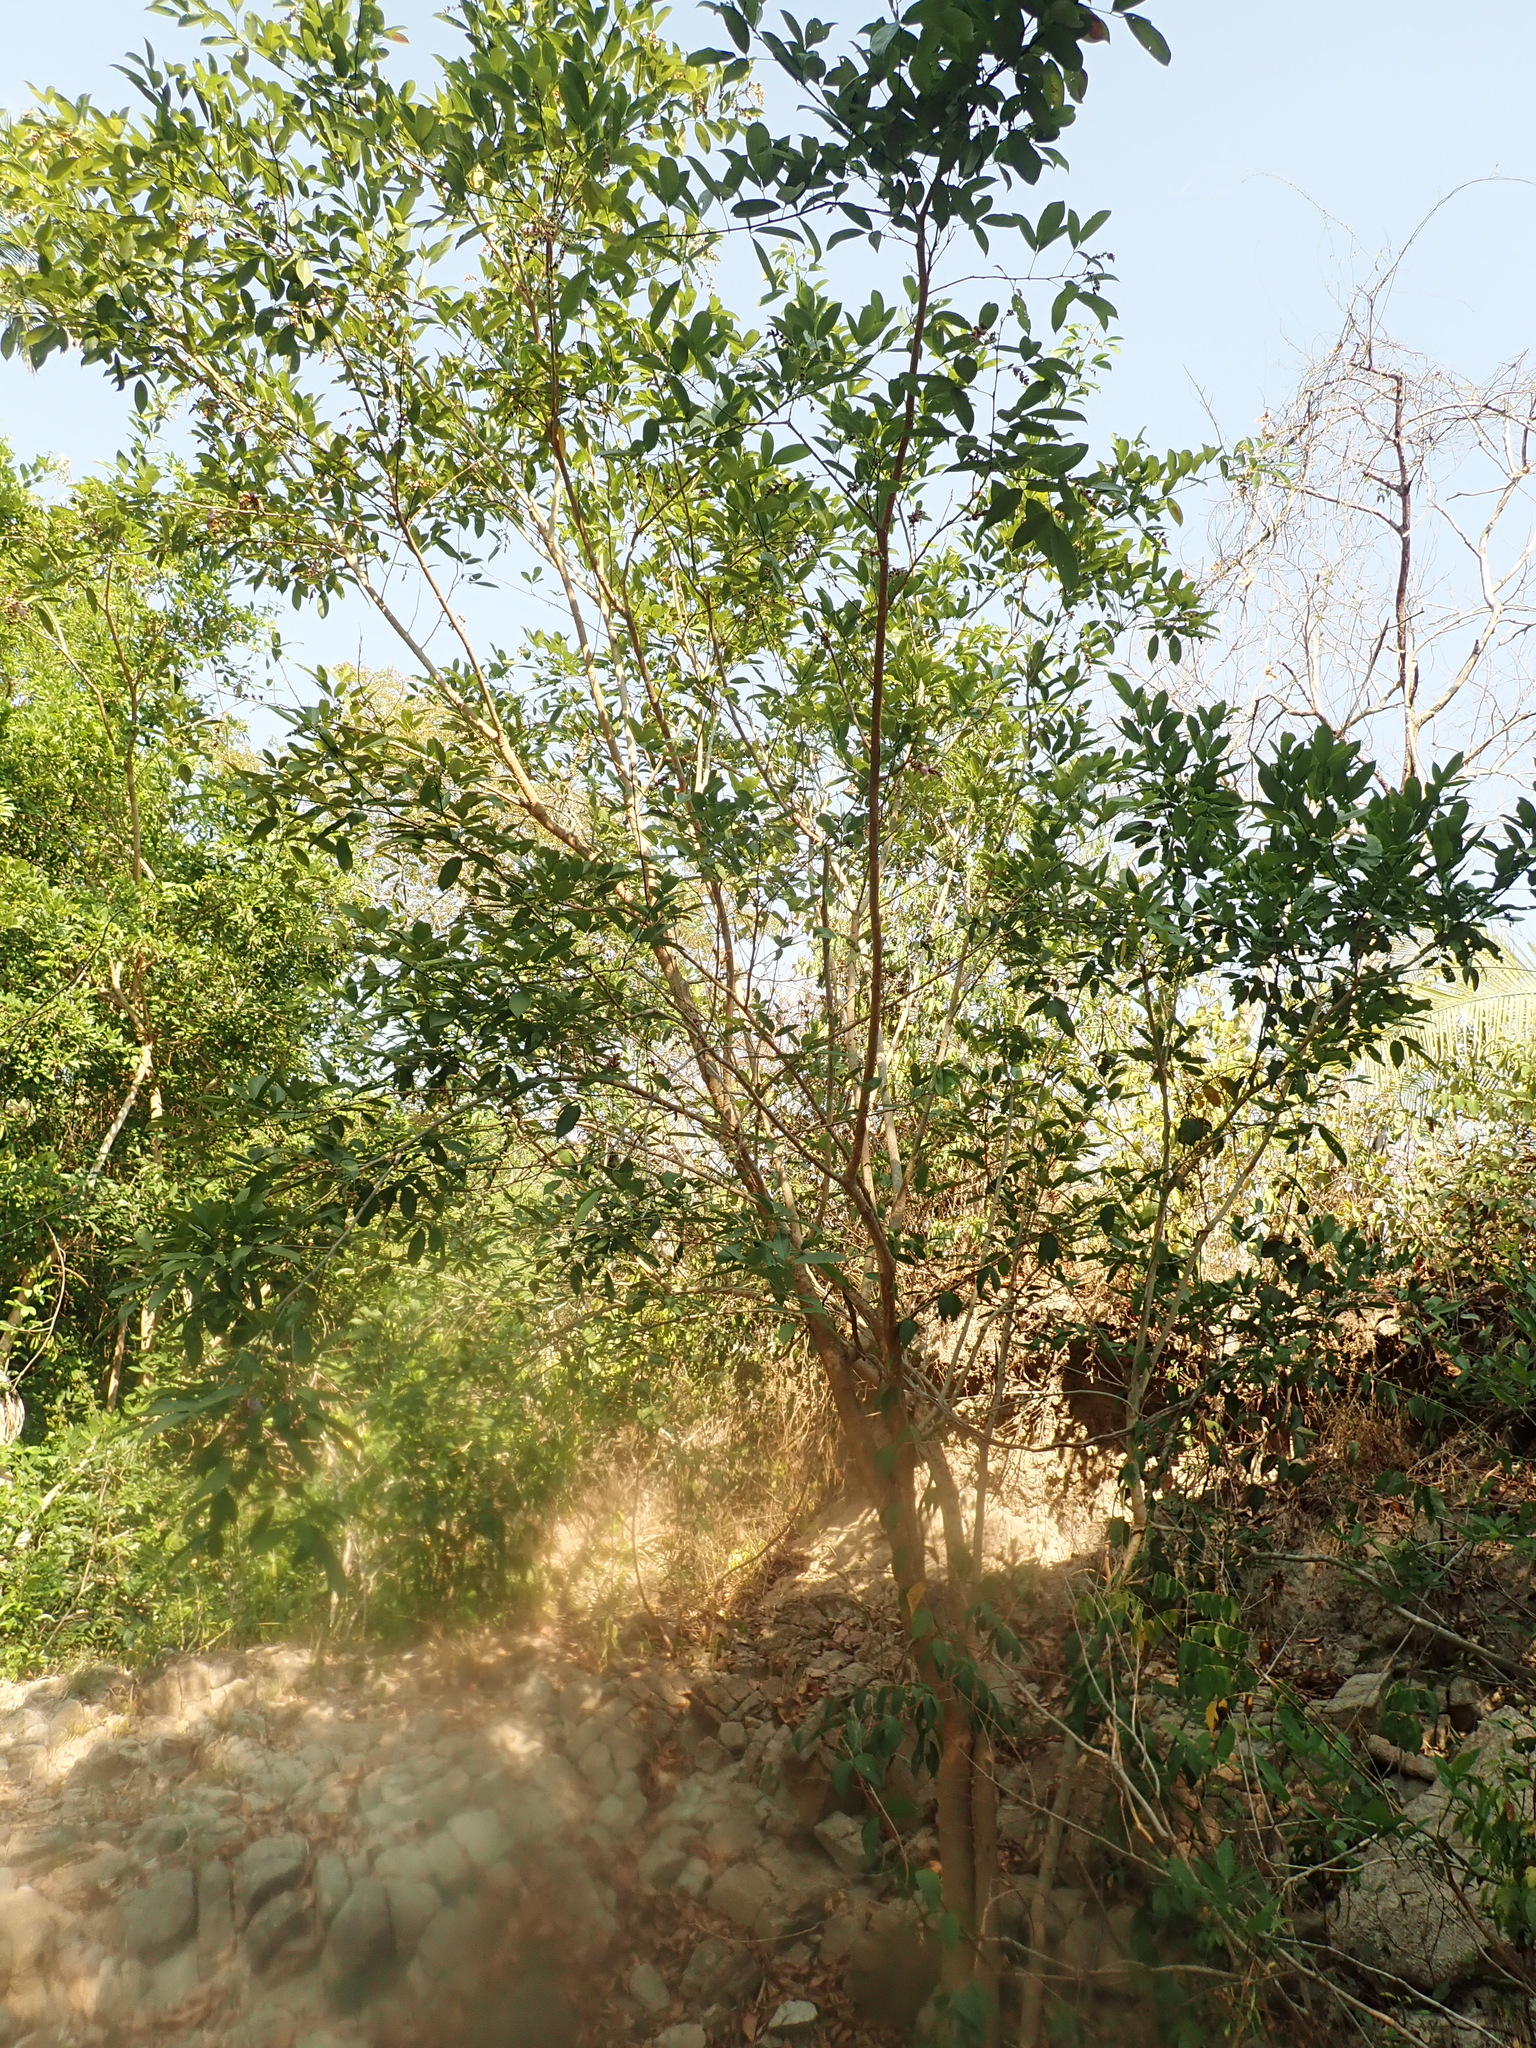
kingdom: Plantae
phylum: Tracheophyta
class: Magnoliopsida
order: Fabales
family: Fabaceae
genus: Clitoria
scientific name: Clitoria fairchildiana
